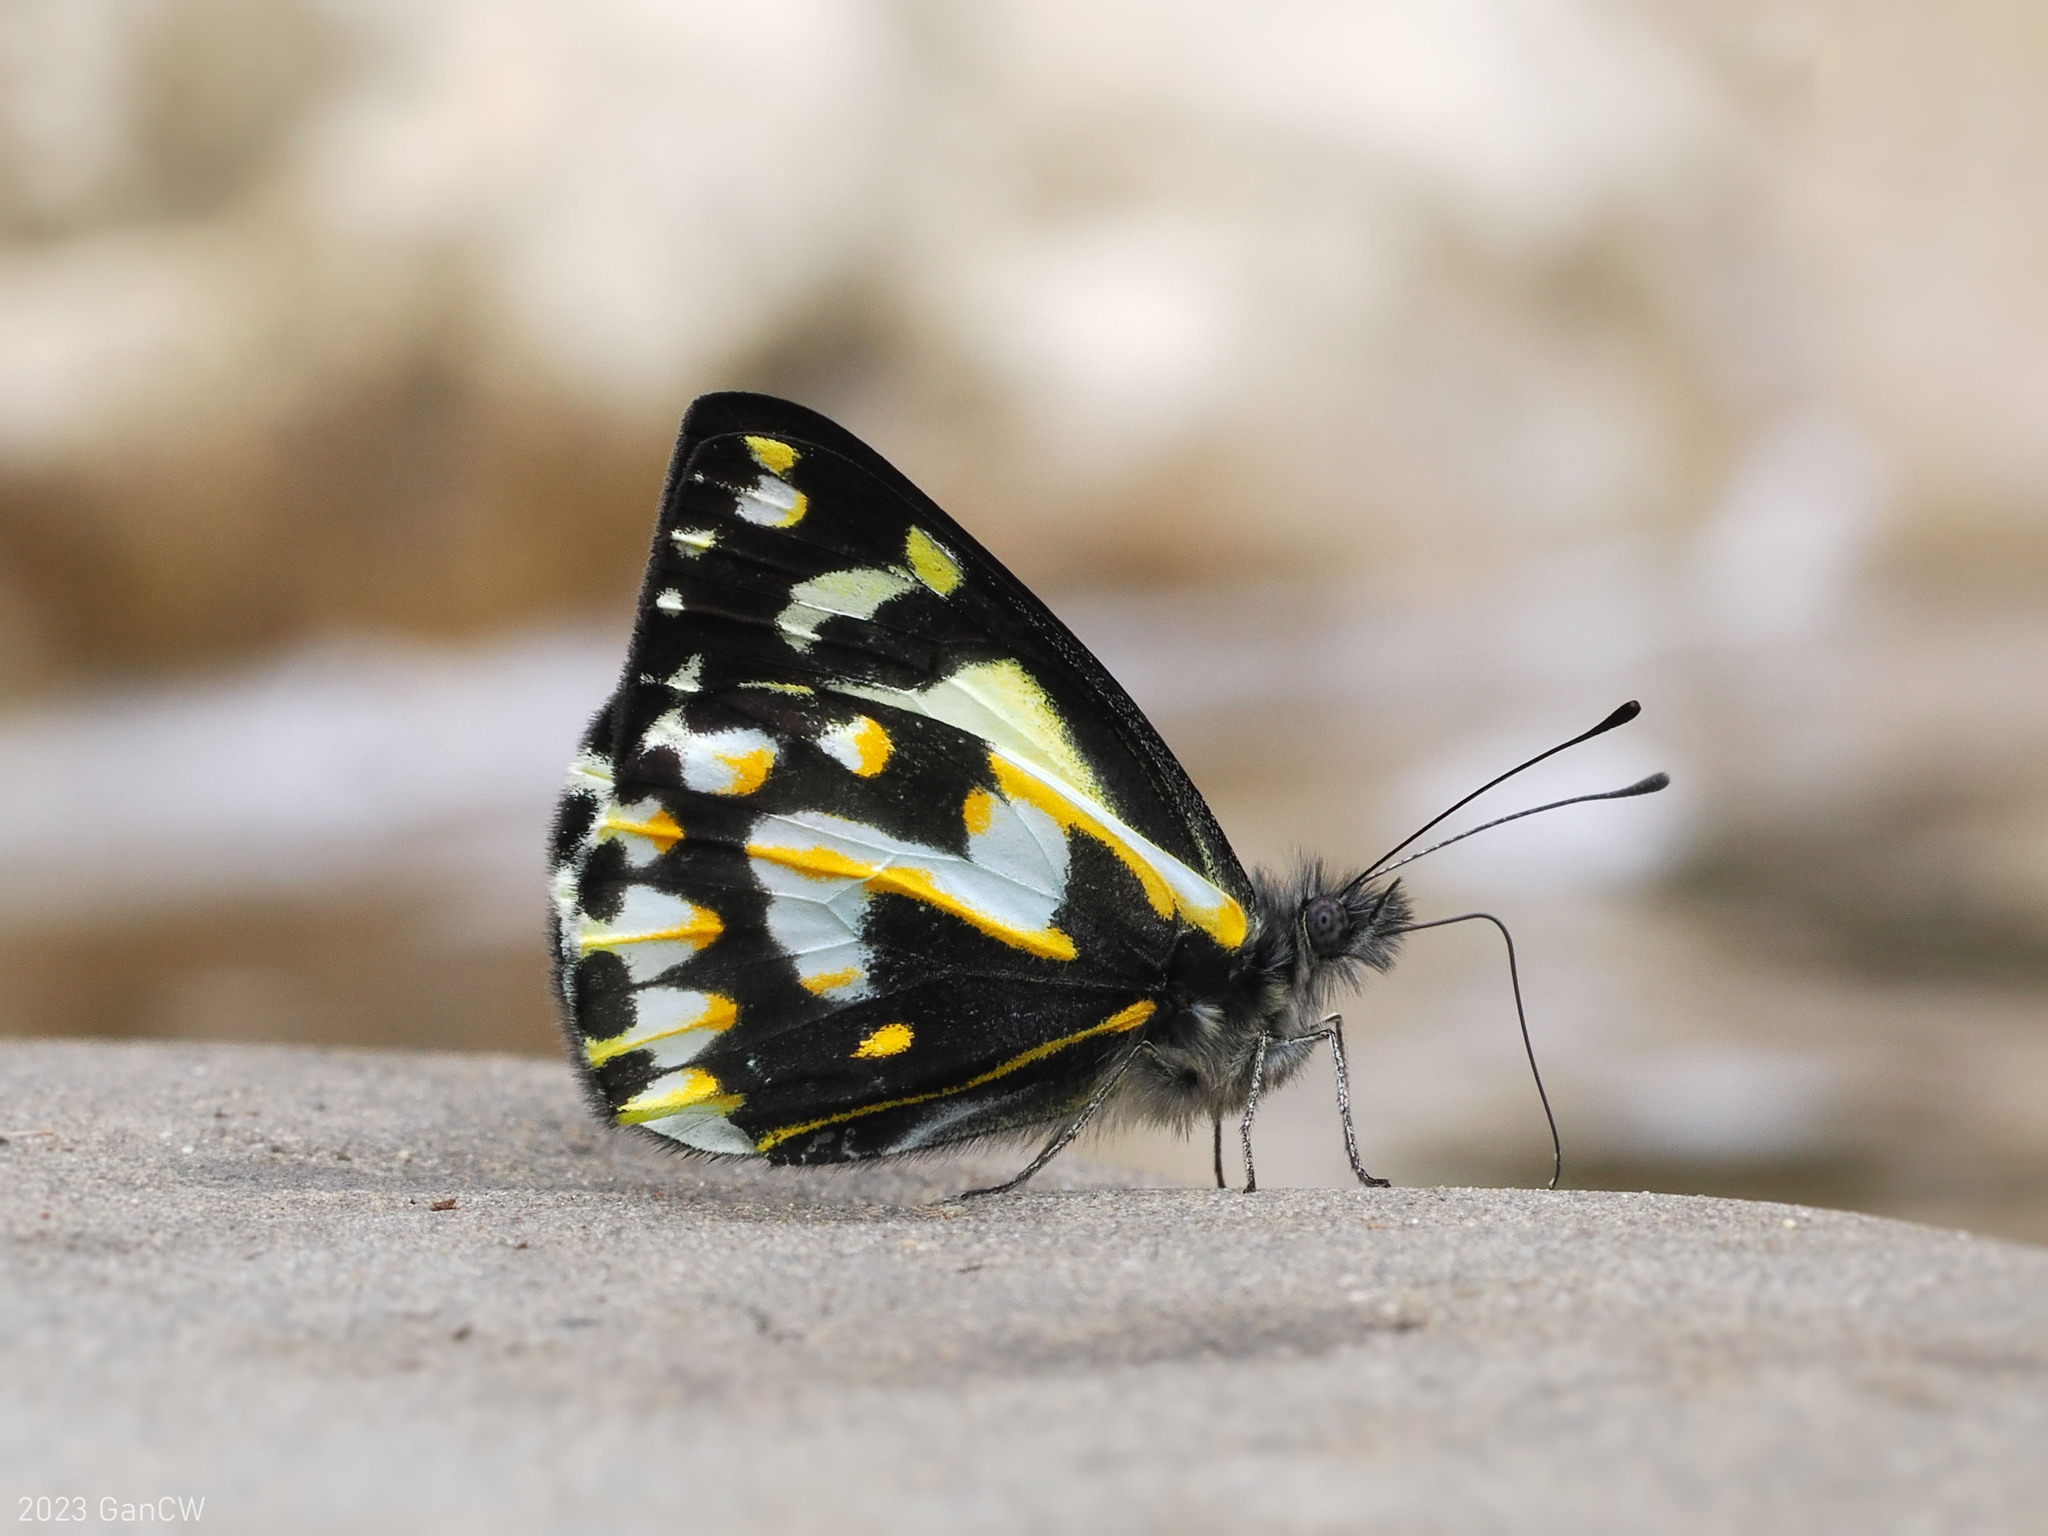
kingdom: Animalia
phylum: Arthropoda
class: Insecta
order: Lepidoptera
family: Pieridae
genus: Delias
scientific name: Delias catisa
